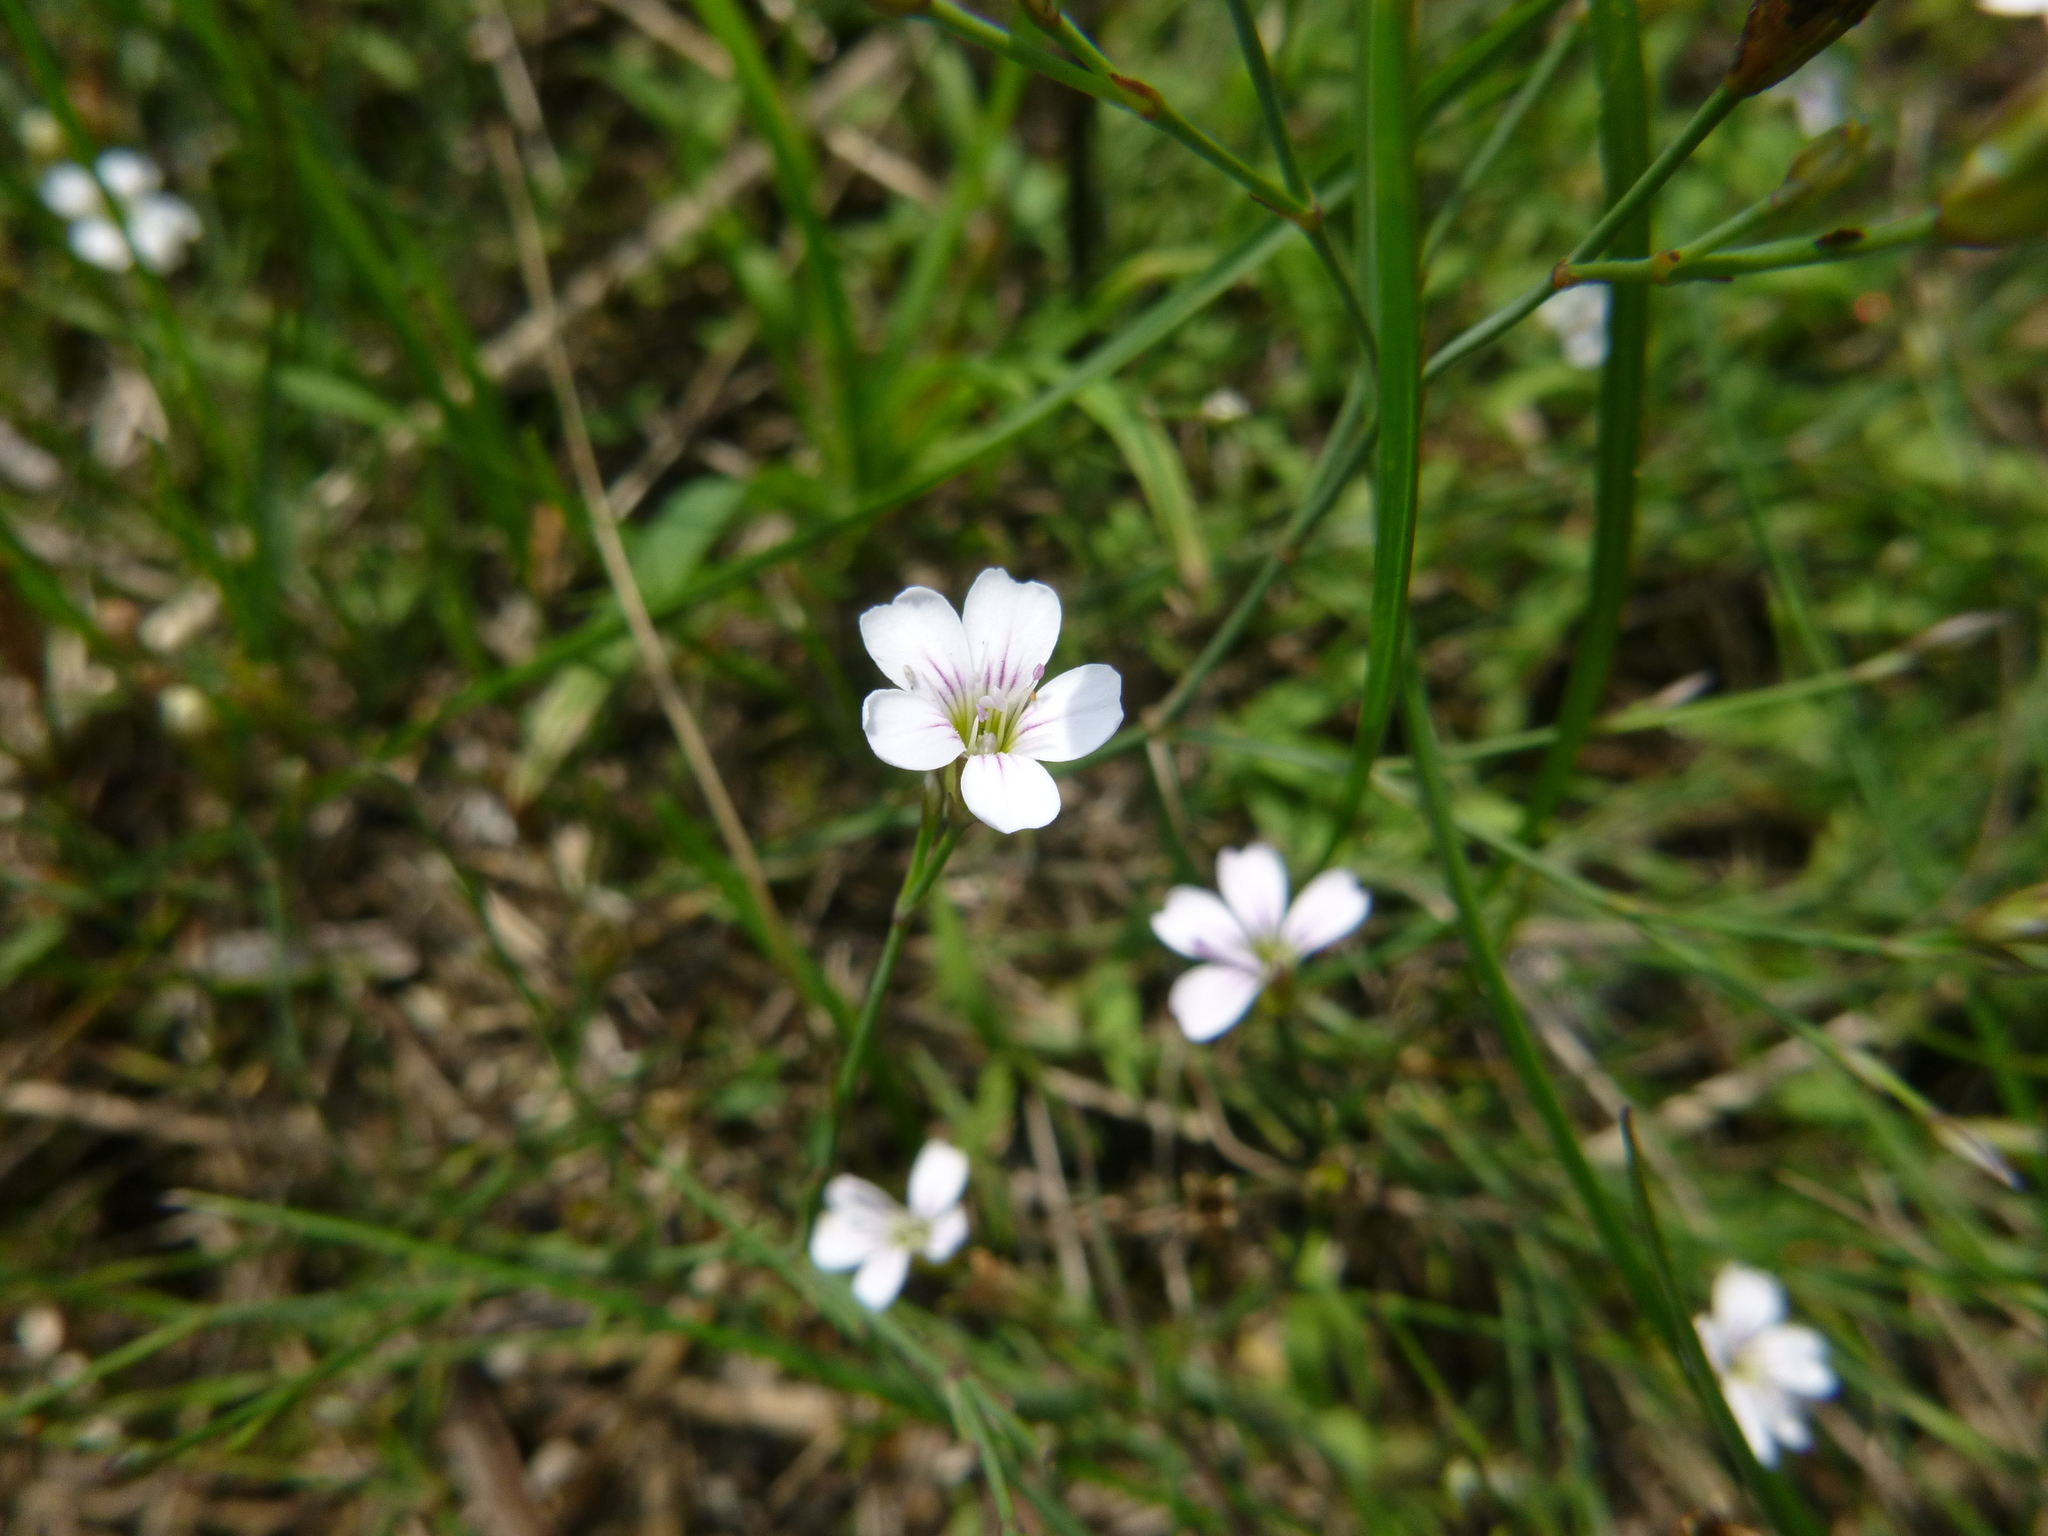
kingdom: Plantae
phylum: Tracheophyta
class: Magnoliopsida
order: Caryophyllales
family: Caryophyllaceae
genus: Petrorhagia
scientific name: Petrorhagia saxifraga
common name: Tunicflower
